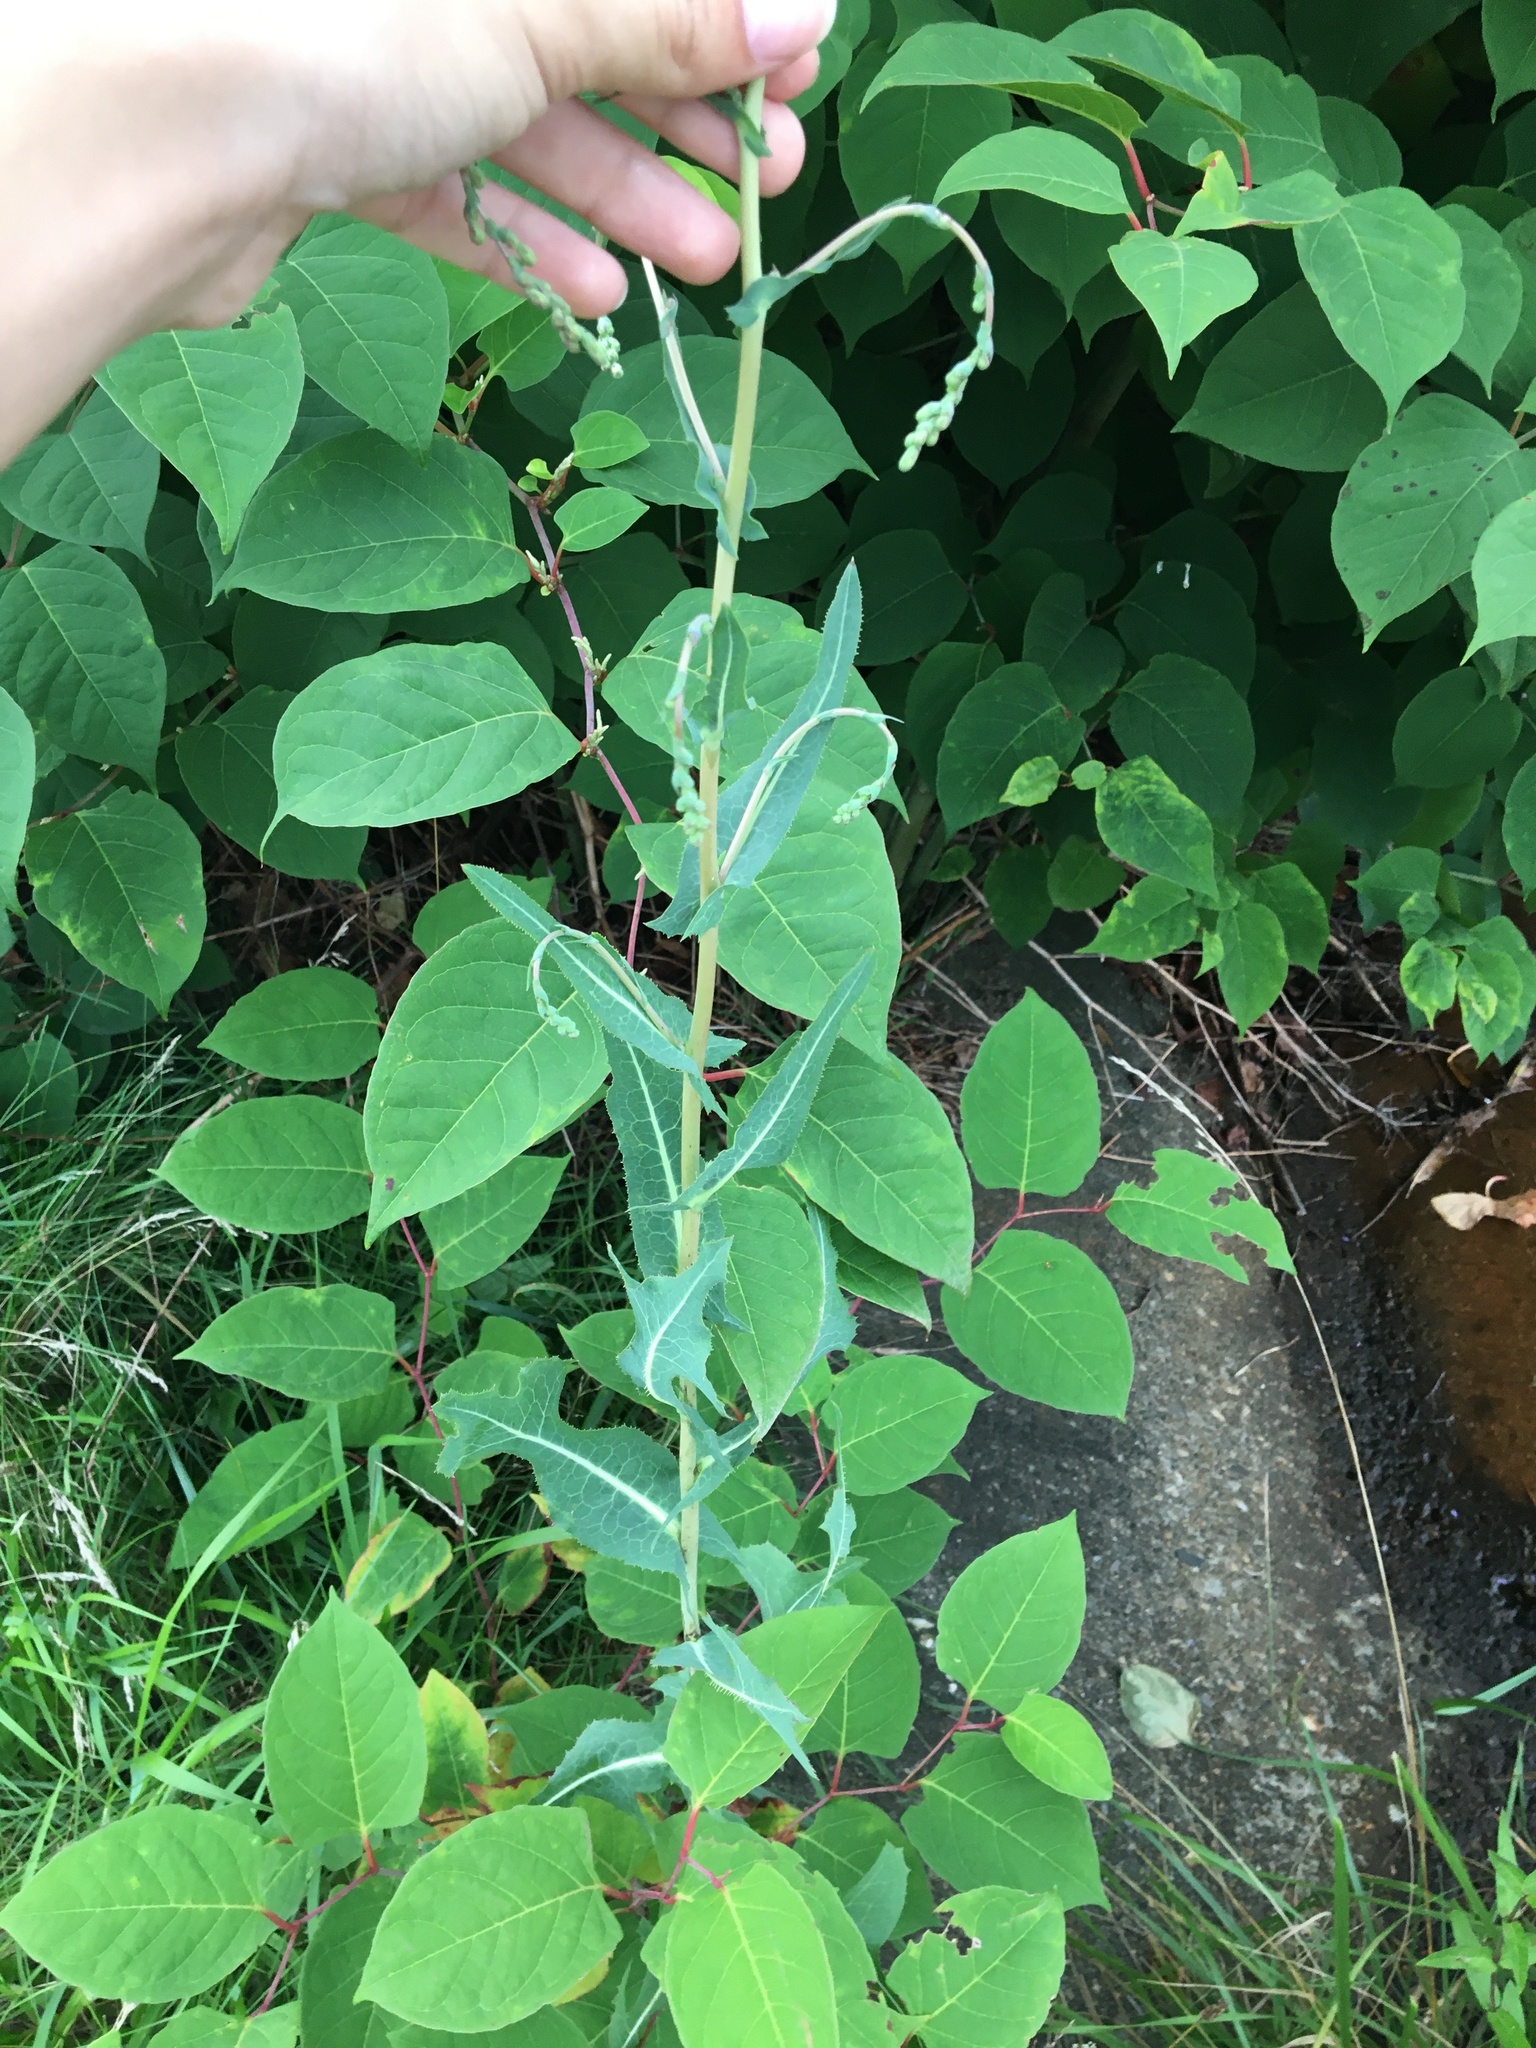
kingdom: Plantae
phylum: Tracheophyta
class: Magnoliopsida
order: Asterales
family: Asteraceae
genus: Lactuca
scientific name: Lactuca serriola
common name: Prickly lettuce
